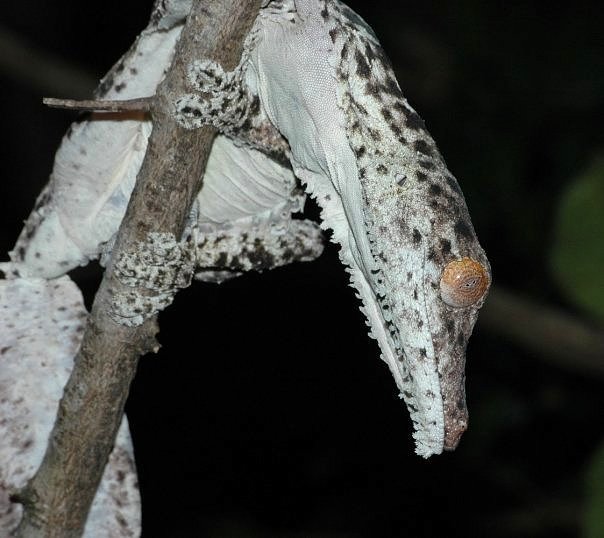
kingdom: Animalia
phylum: Chordata
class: Squamata
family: Gekkonidae
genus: Uroplatus
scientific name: Uroplatus henkeli
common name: Henkel’s flat-tail gecko
